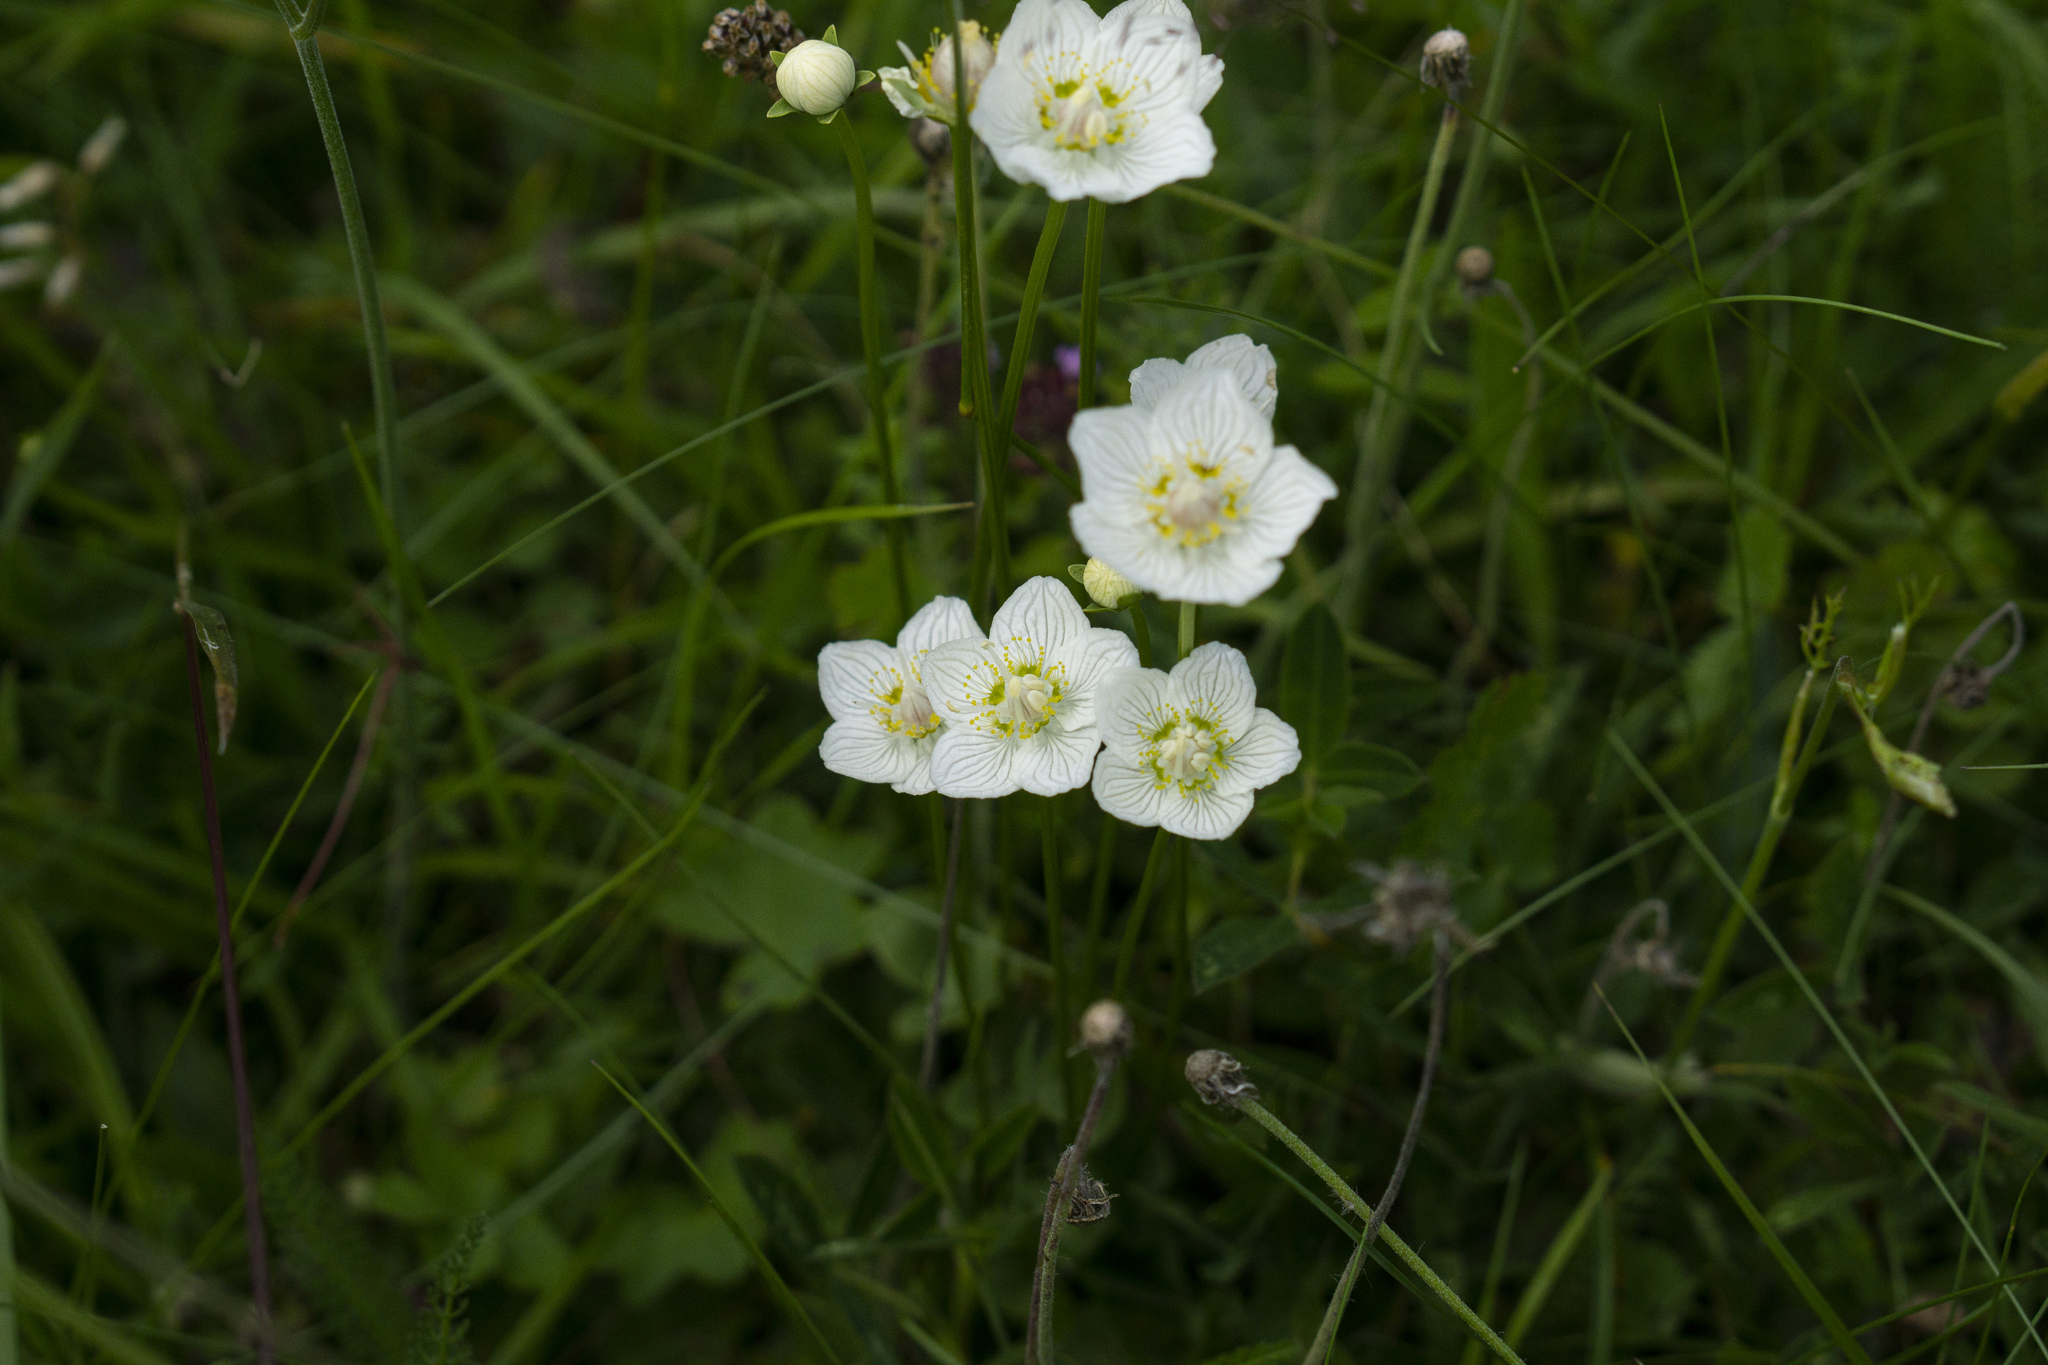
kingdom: Plantae
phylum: Tracheophyta
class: Magnoliopsida
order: Celastrales
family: Parnassiaceae
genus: Parnassia
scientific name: Parnassia palustris
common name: Grass-of-parnassus
